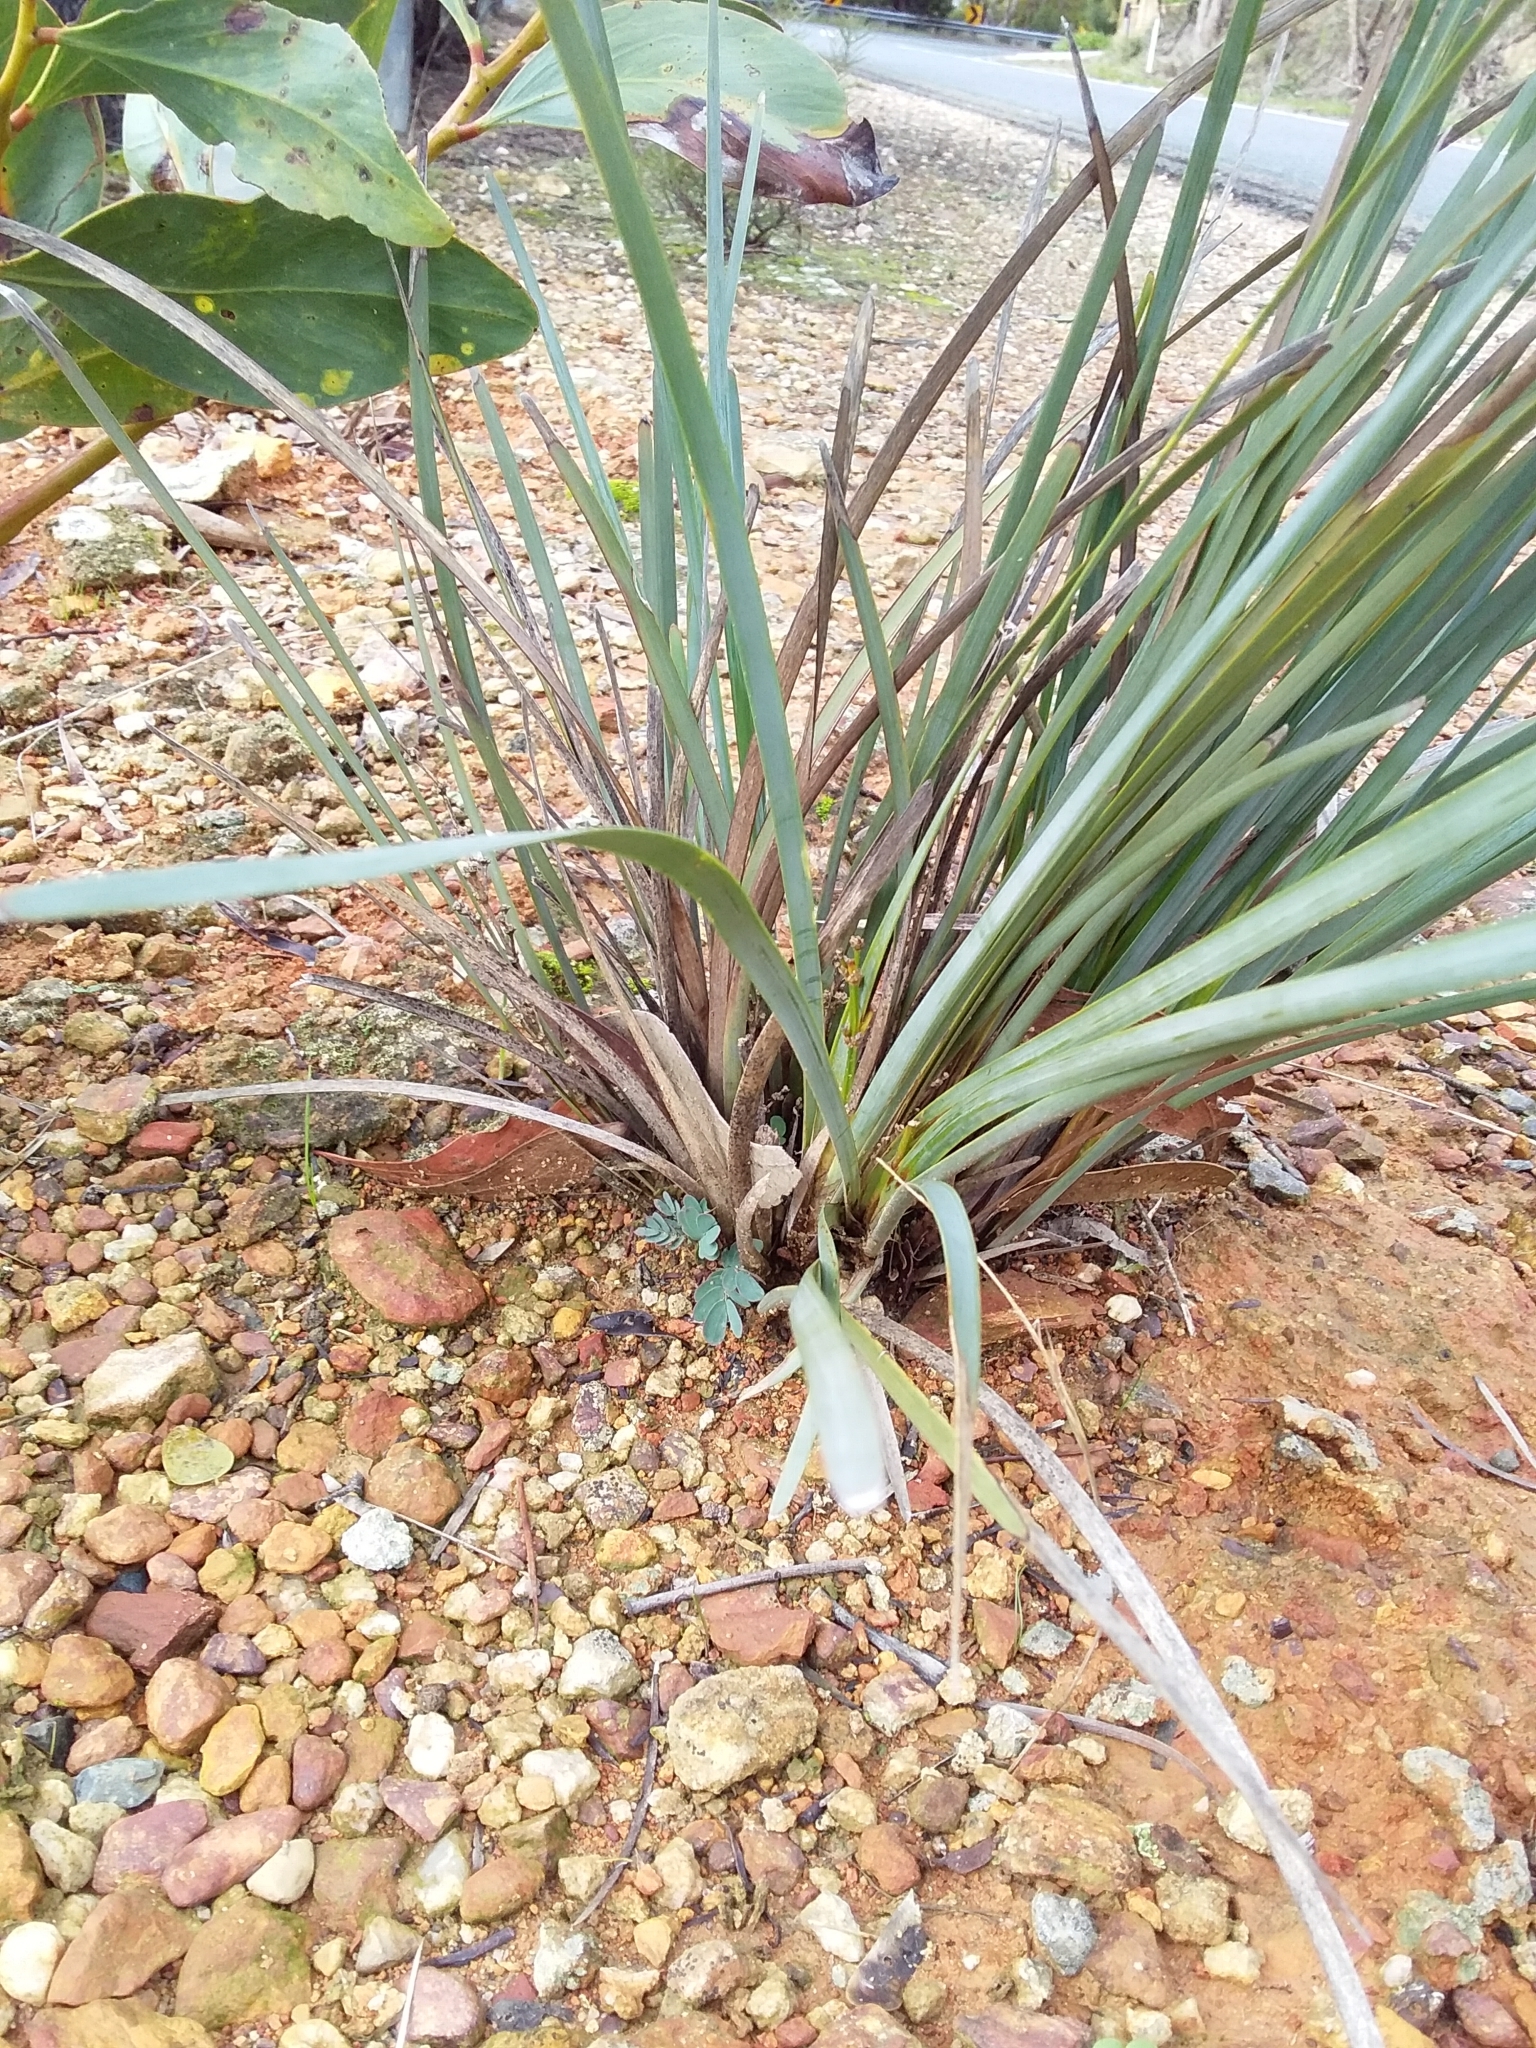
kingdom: Plantae
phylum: Tracheophyta
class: Liliopsida
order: Asparagales
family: Asparagaceae
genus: Lomandra
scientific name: Lomandra multiflora
